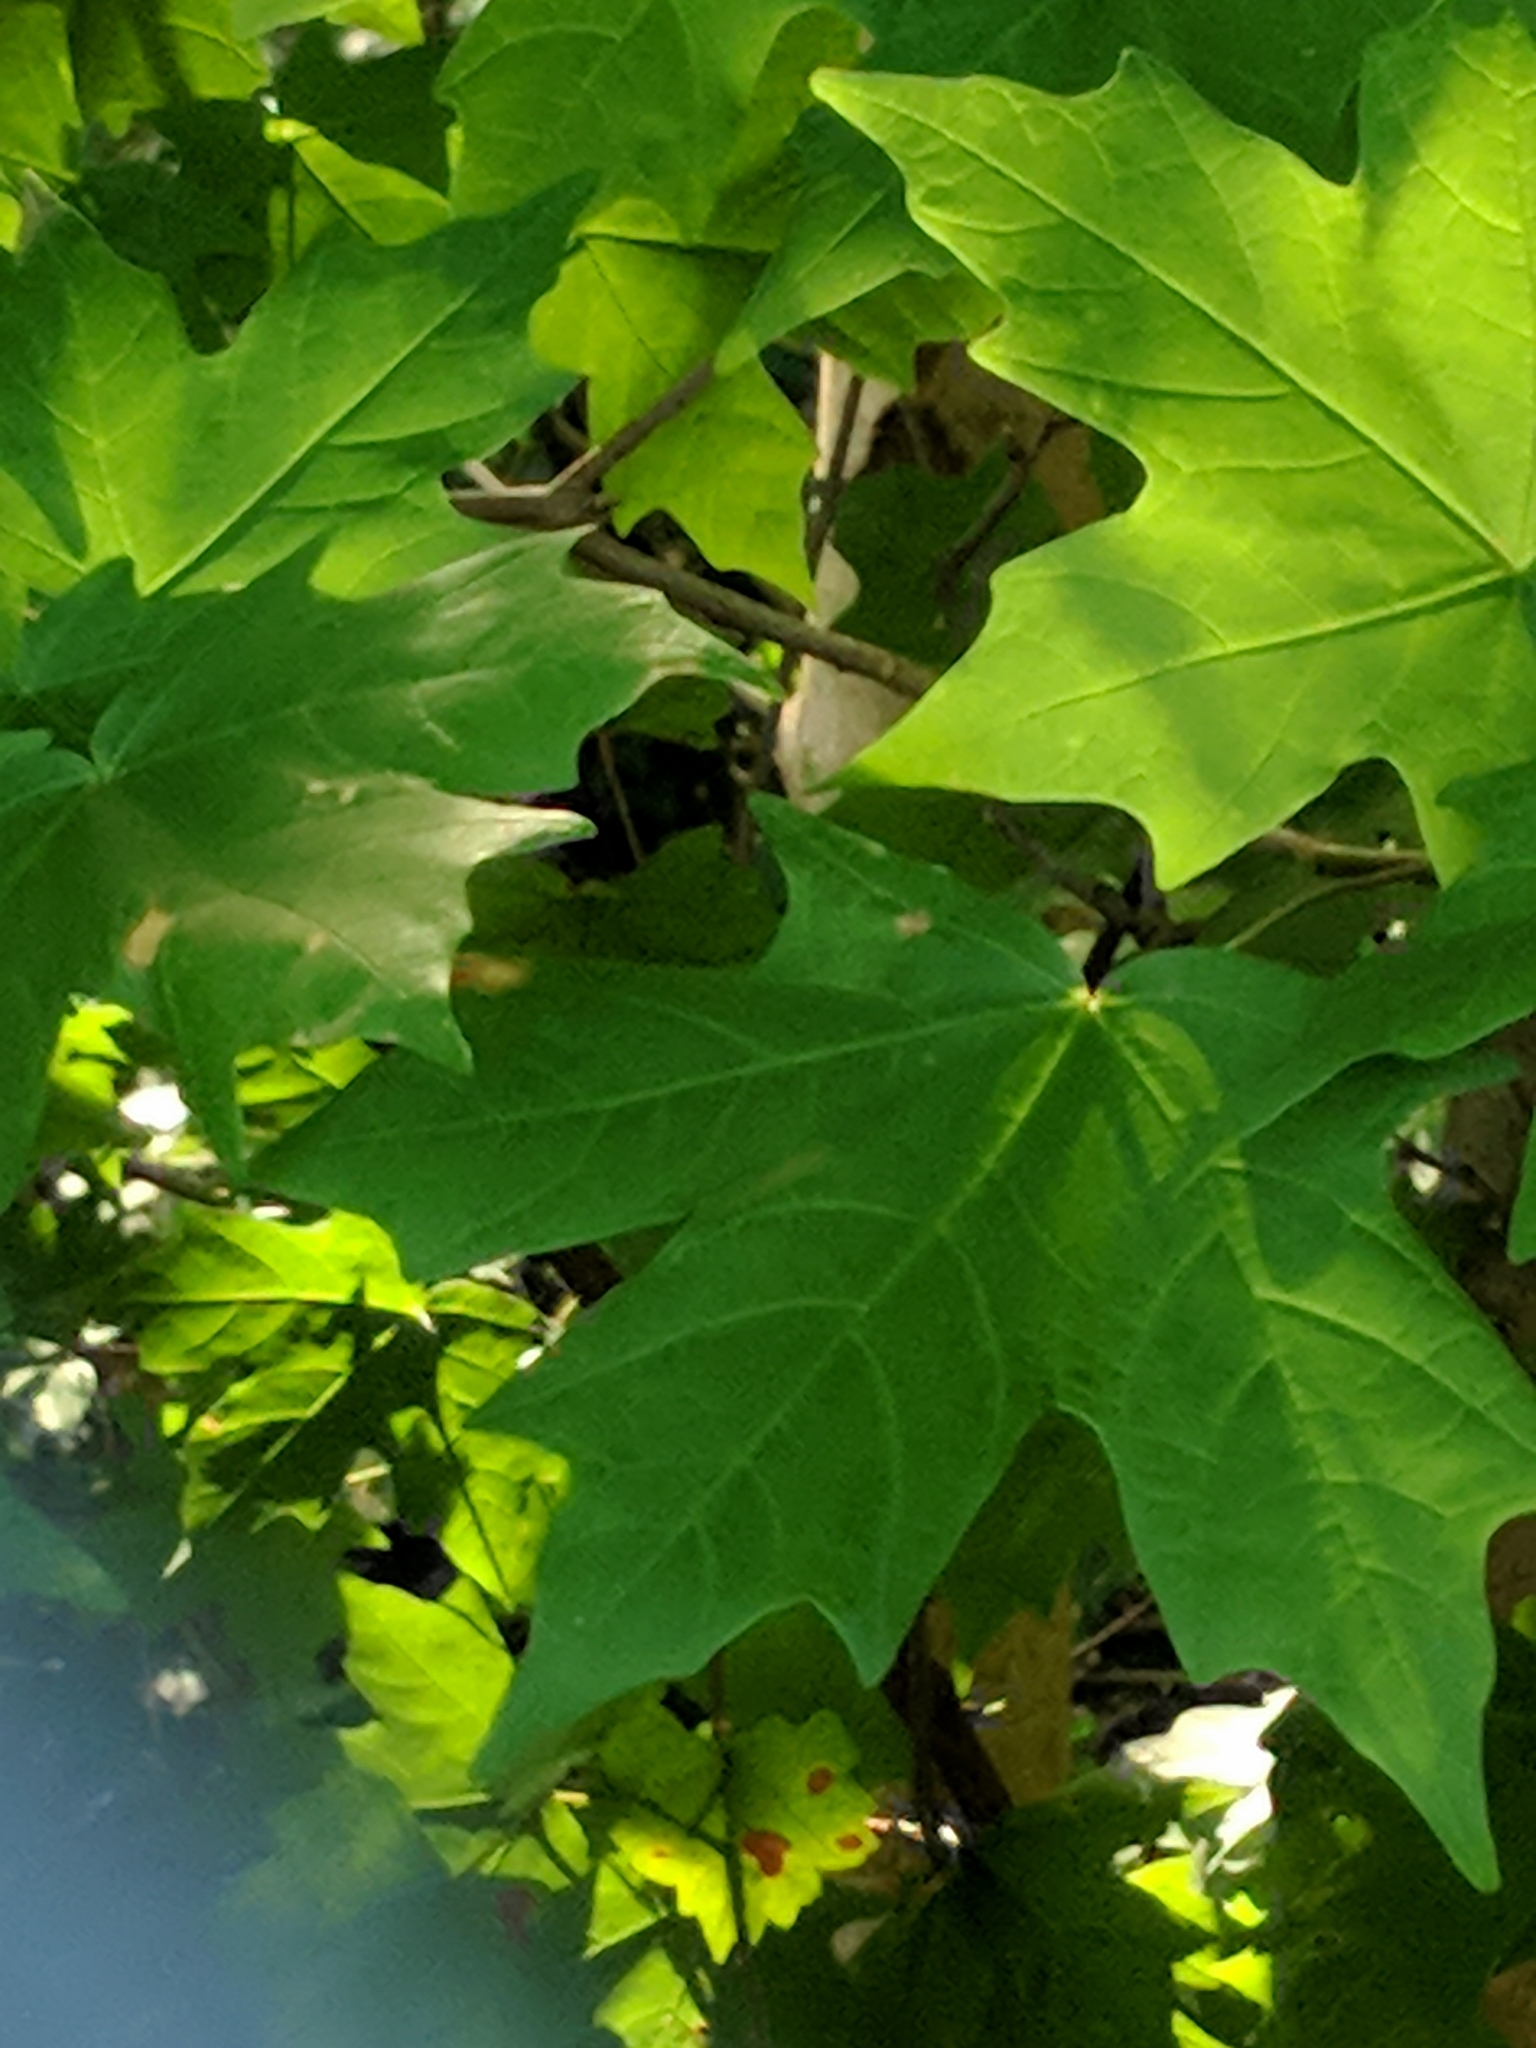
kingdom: Plantae
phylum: Tracheophyta
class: Magnoliopsida
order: Sapindales
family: Sapindaceae
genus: Acer
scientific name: Acer floridanum
